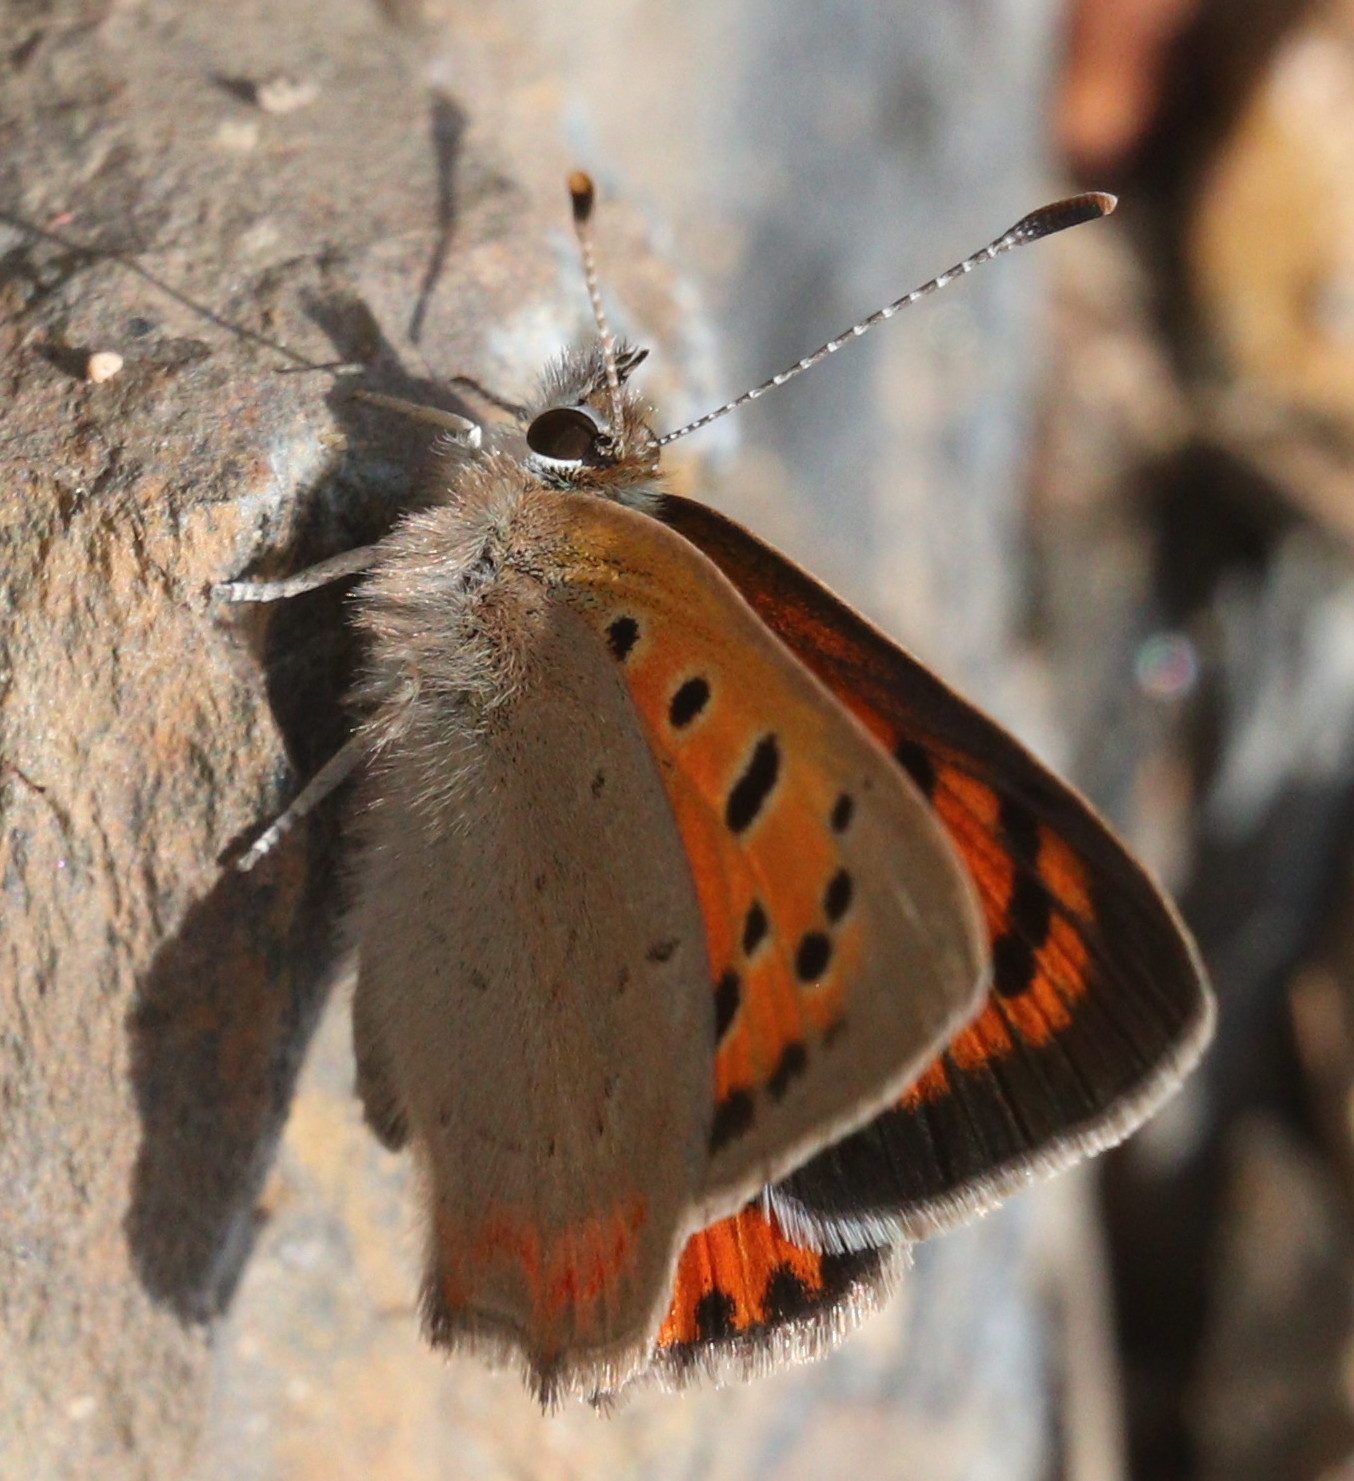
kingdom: Animalia
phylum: Arthropoda
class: Insecta
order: Lepidoptera
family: Lycaenidae
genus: Lycaena
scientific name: Lycaena phlaeas
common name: Small copper
